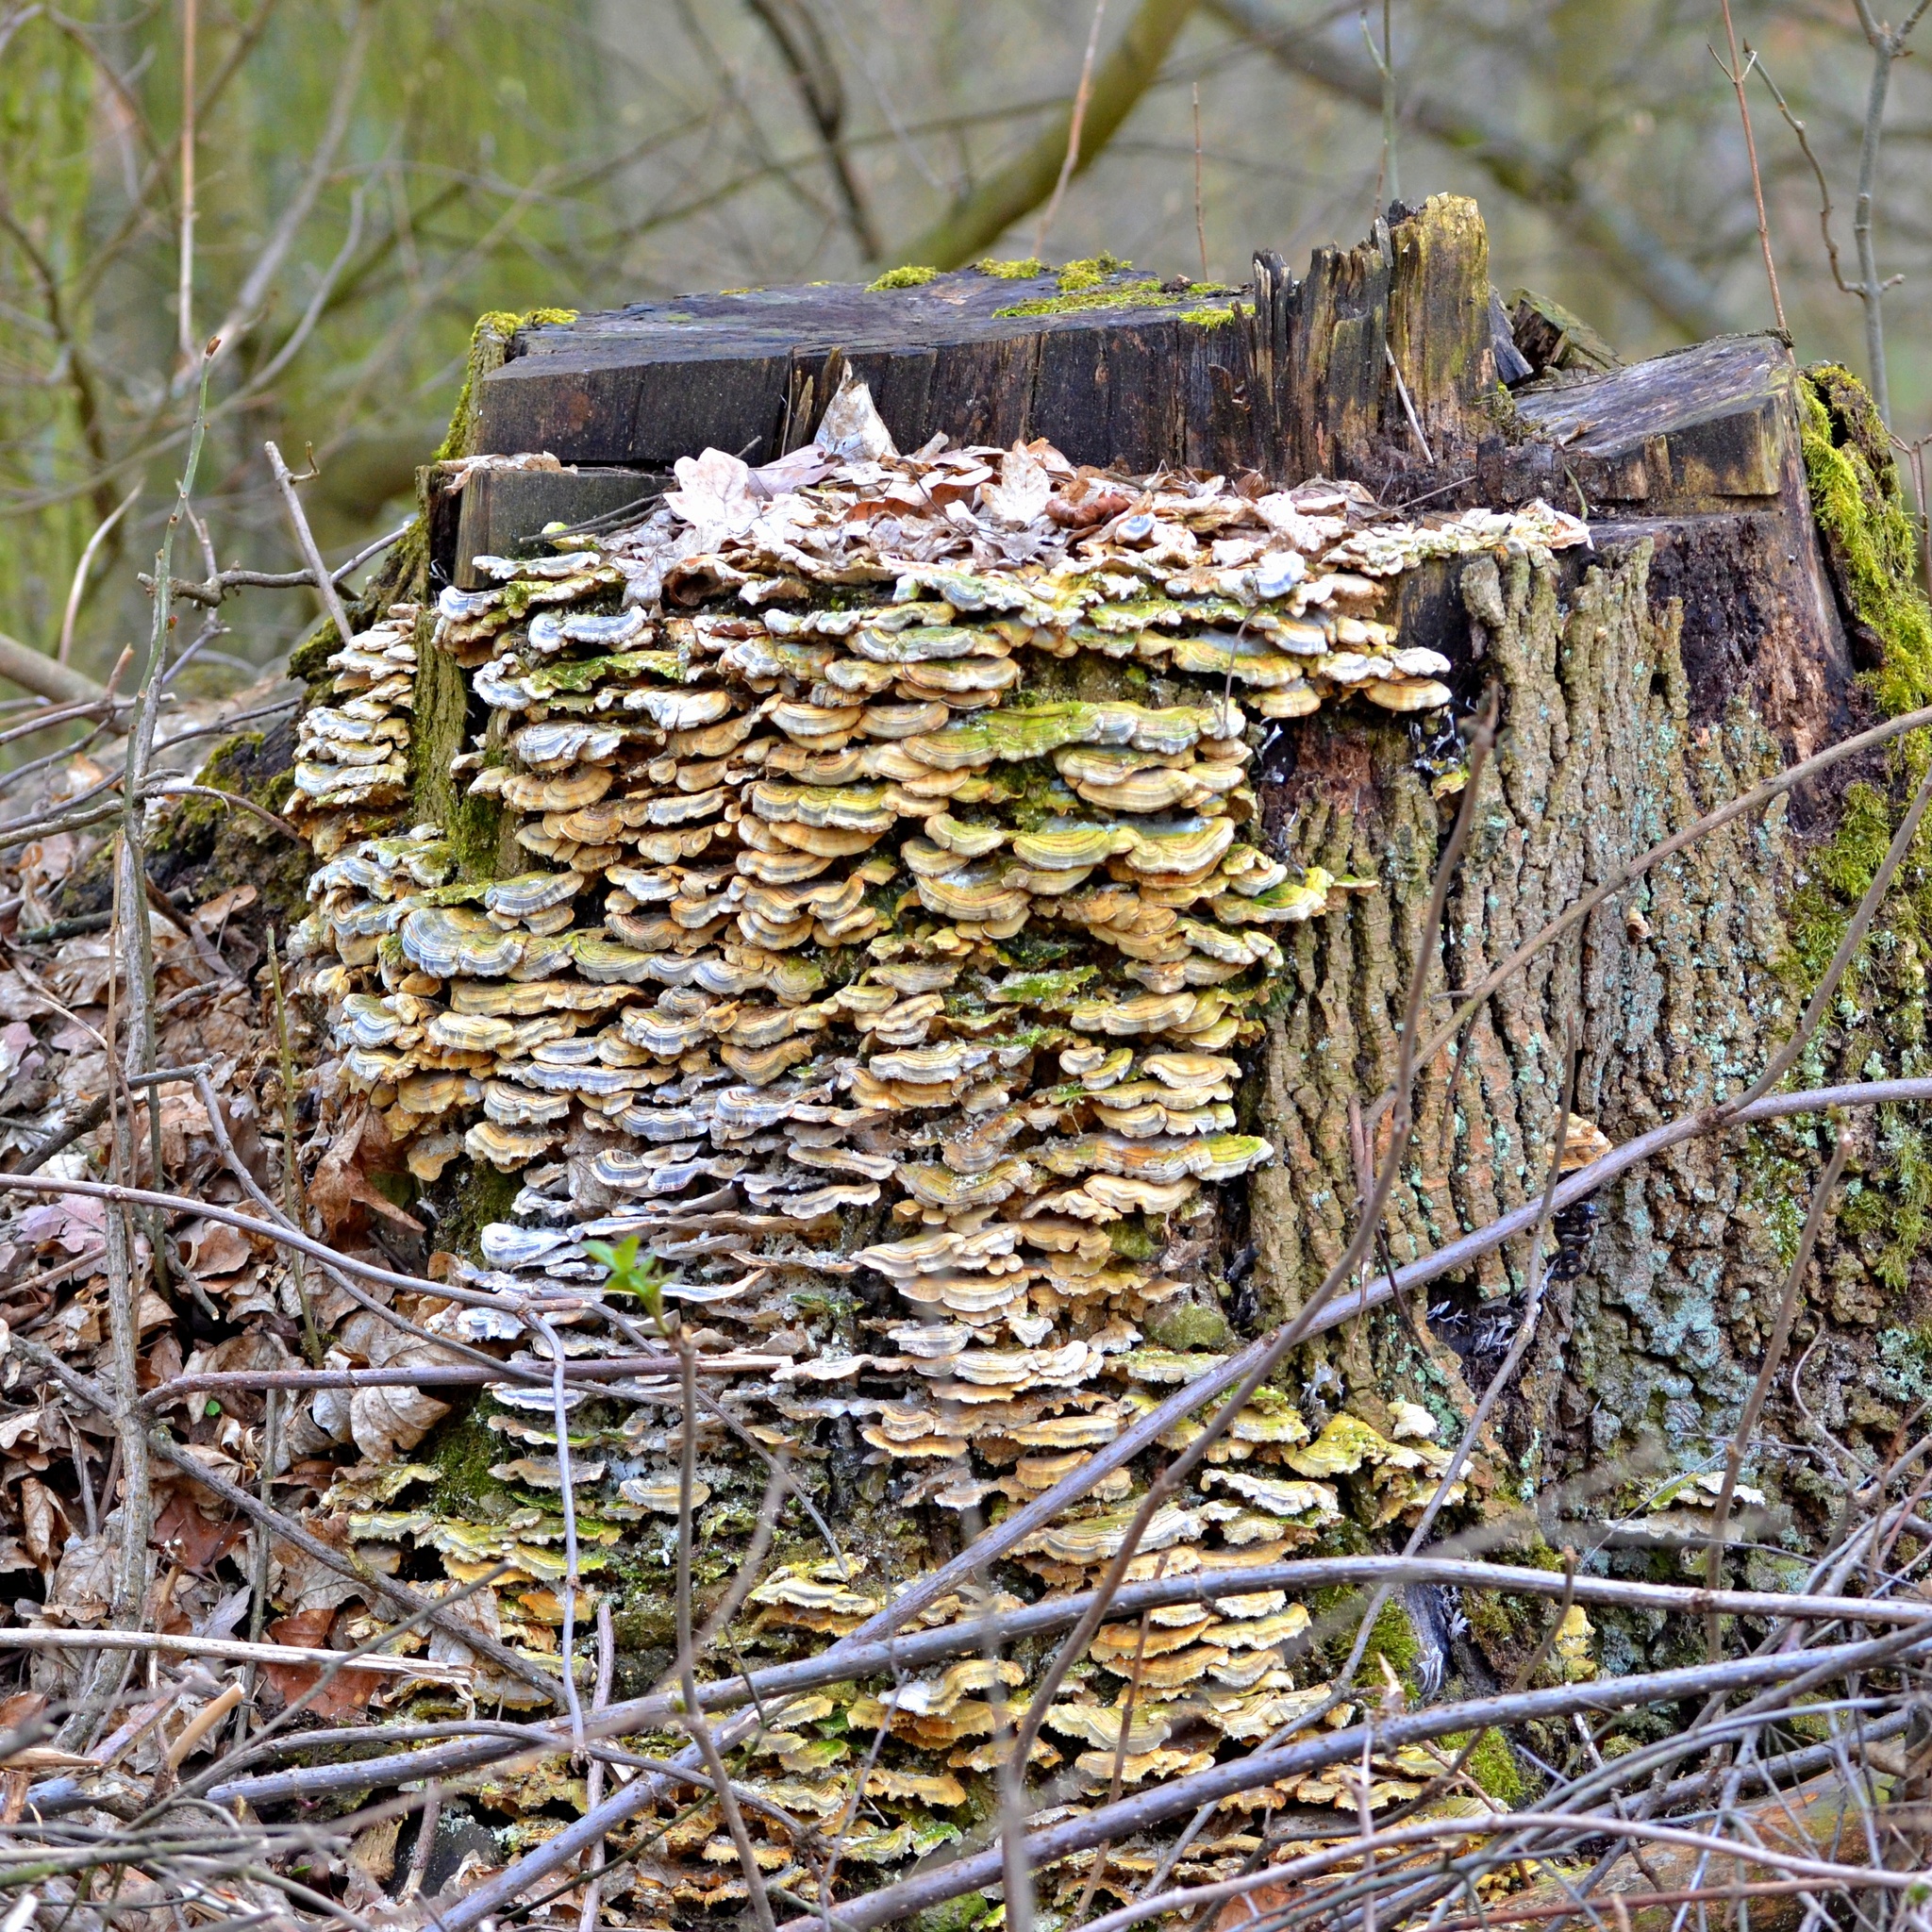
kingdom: Fungi
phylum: Basidiomycota
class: Agaricomycetes
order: Polyporales
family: Polyporaceae
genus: Trametes
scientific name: Trametes versicolor
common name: Turkeytail
